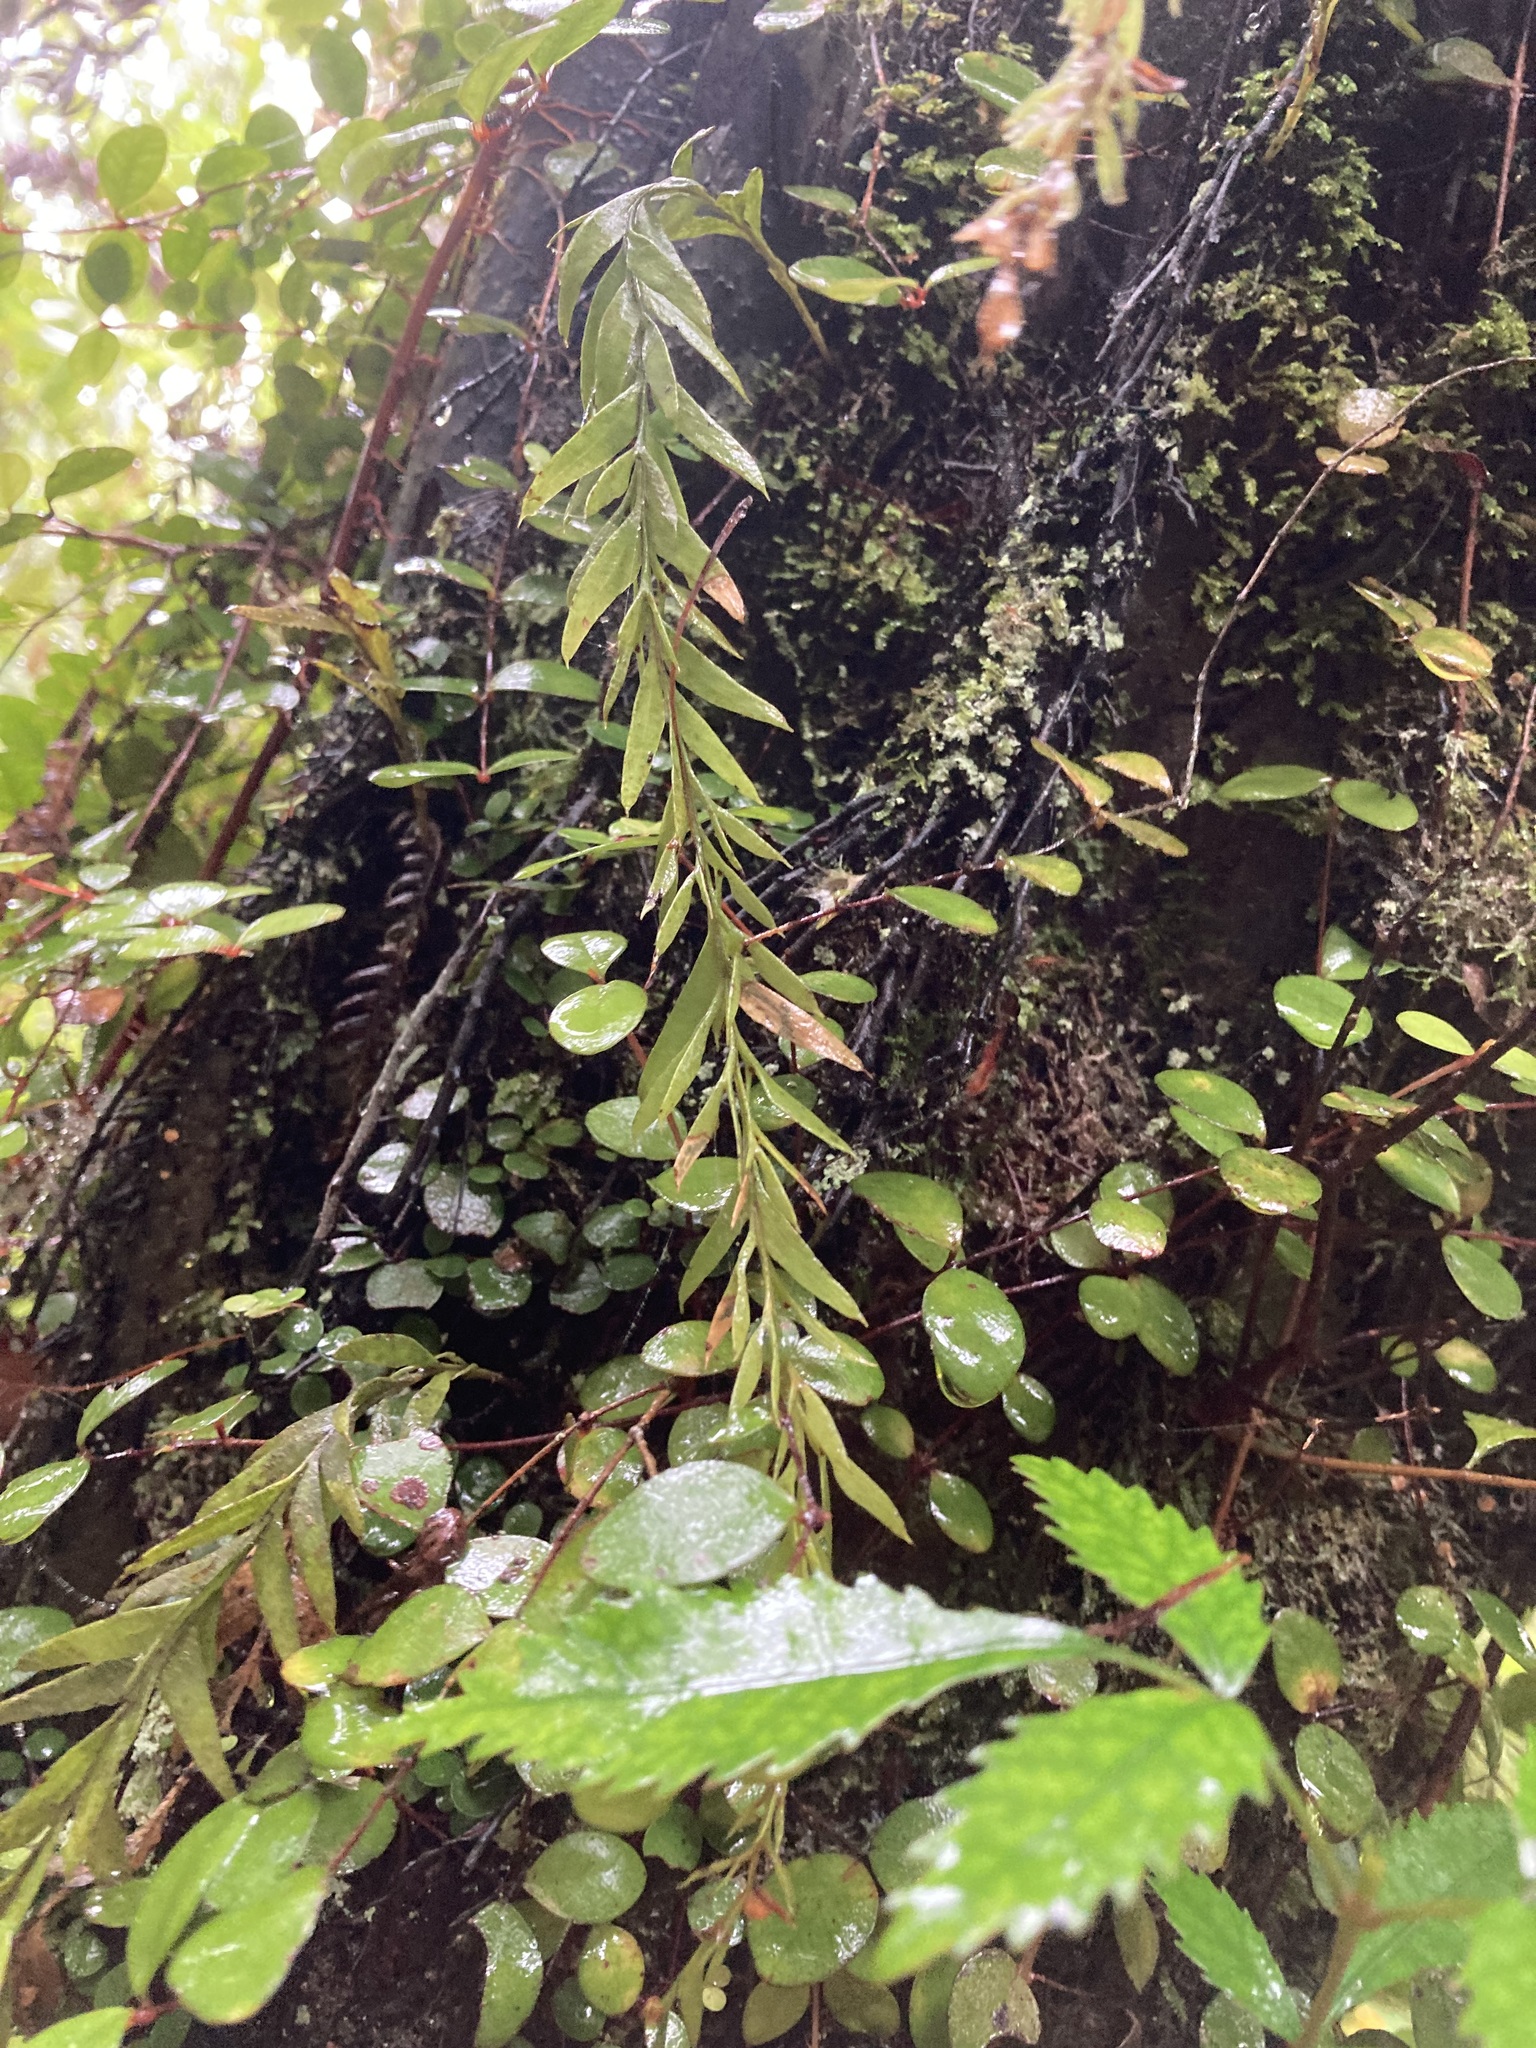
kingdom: Plantae
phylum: Tracheophyta
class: Polypodiopsida
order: Psilotales
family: Psilotaceae
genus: Tmesipteris
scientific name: Tmesipteris elongata
